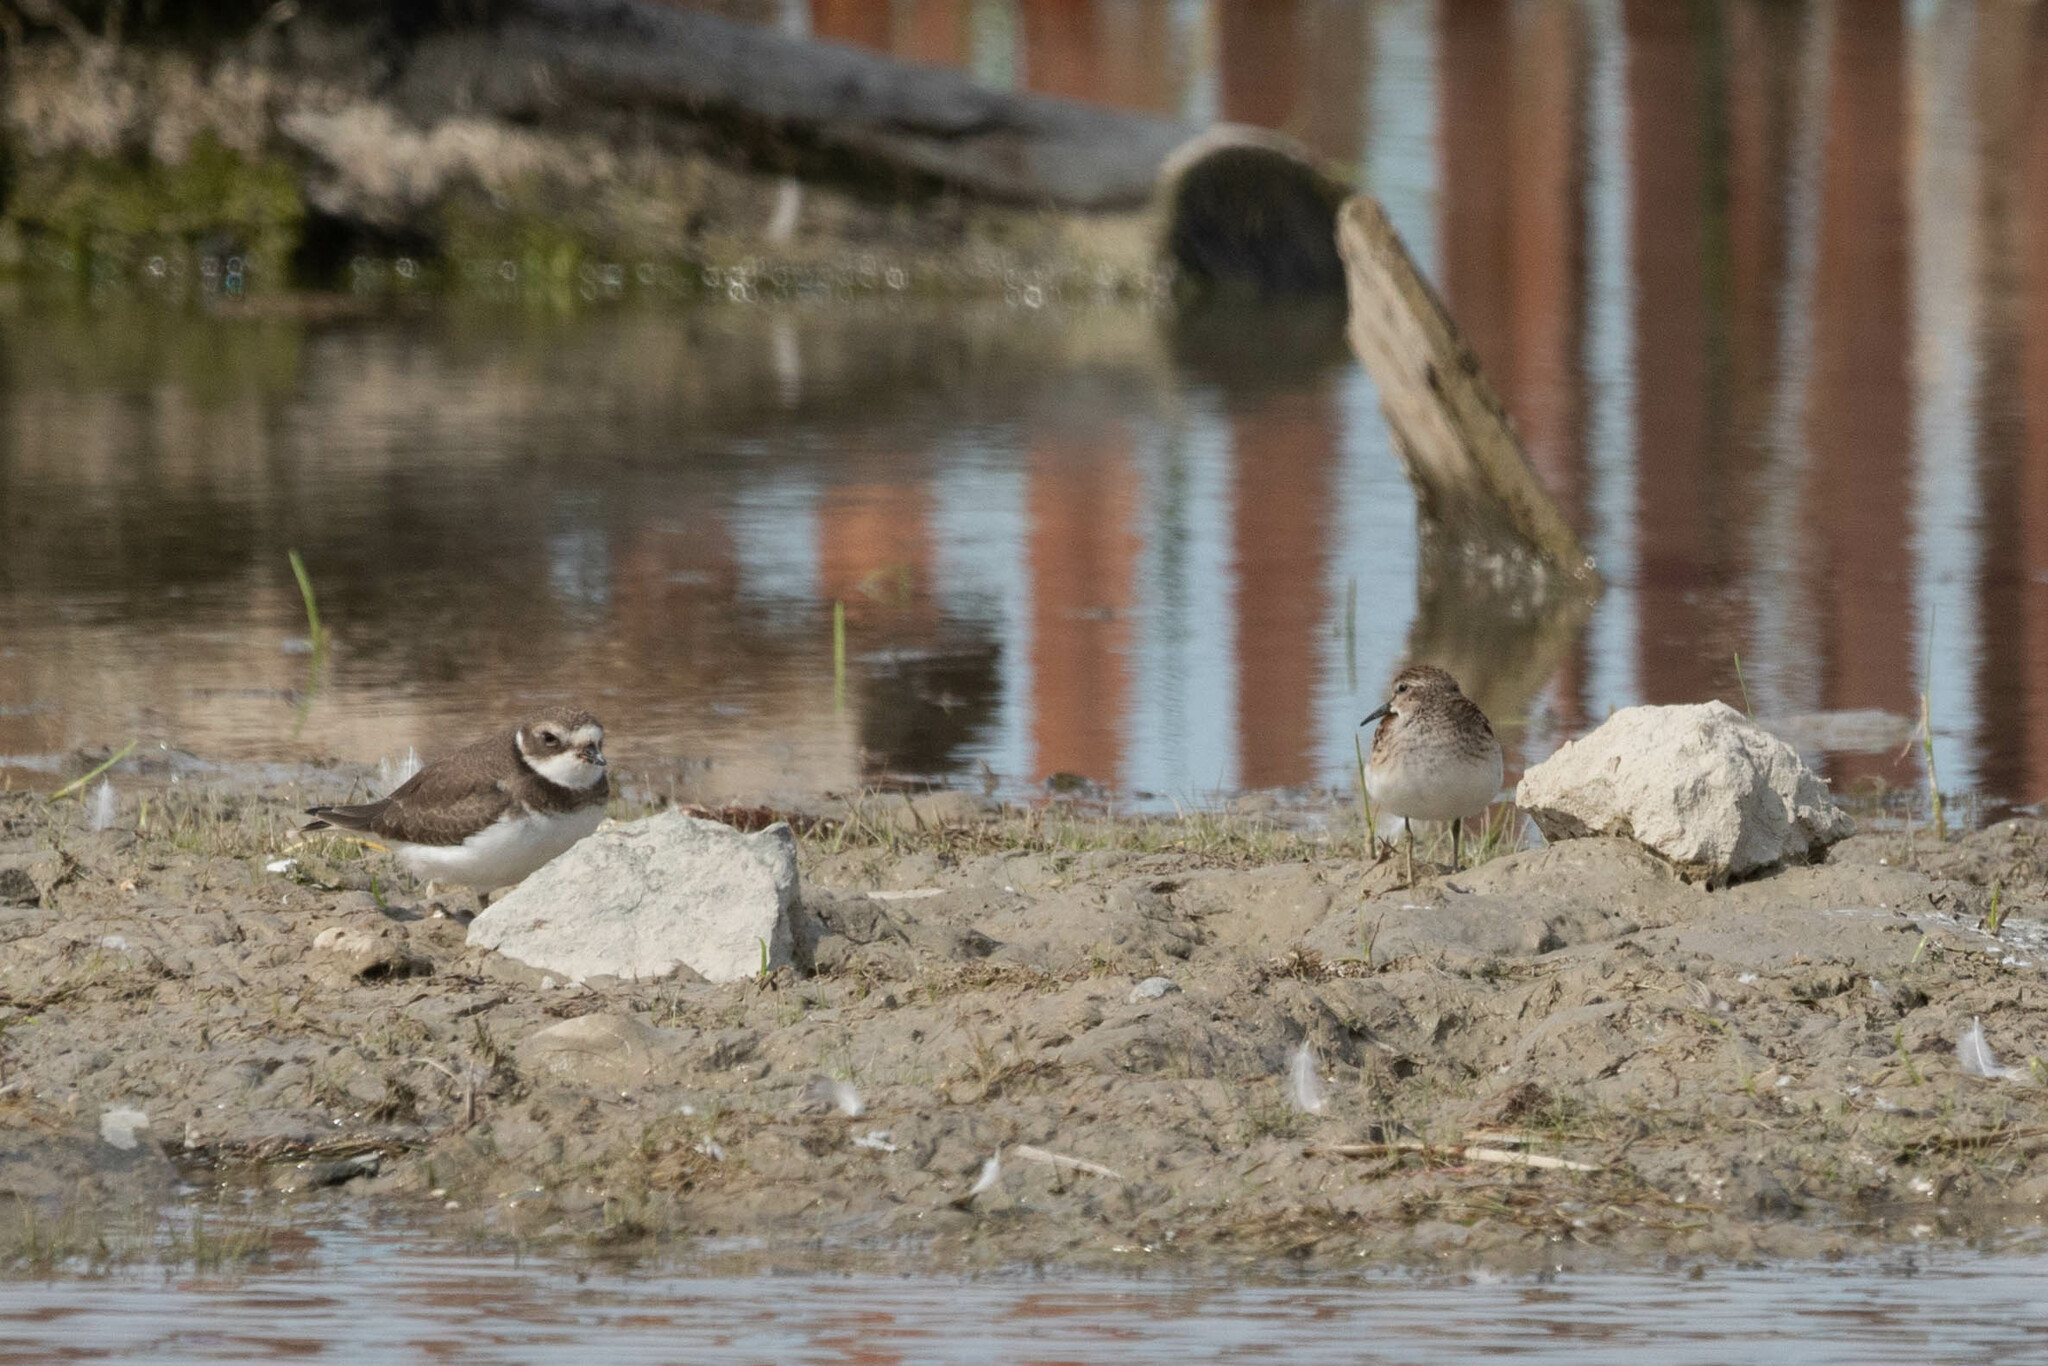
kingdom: Animalia
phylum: Chordata
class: Aves
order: Charadriiformes
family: Scolopacidae
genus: Calidris
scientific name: Calidris minutilla
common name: Least sandpiper
